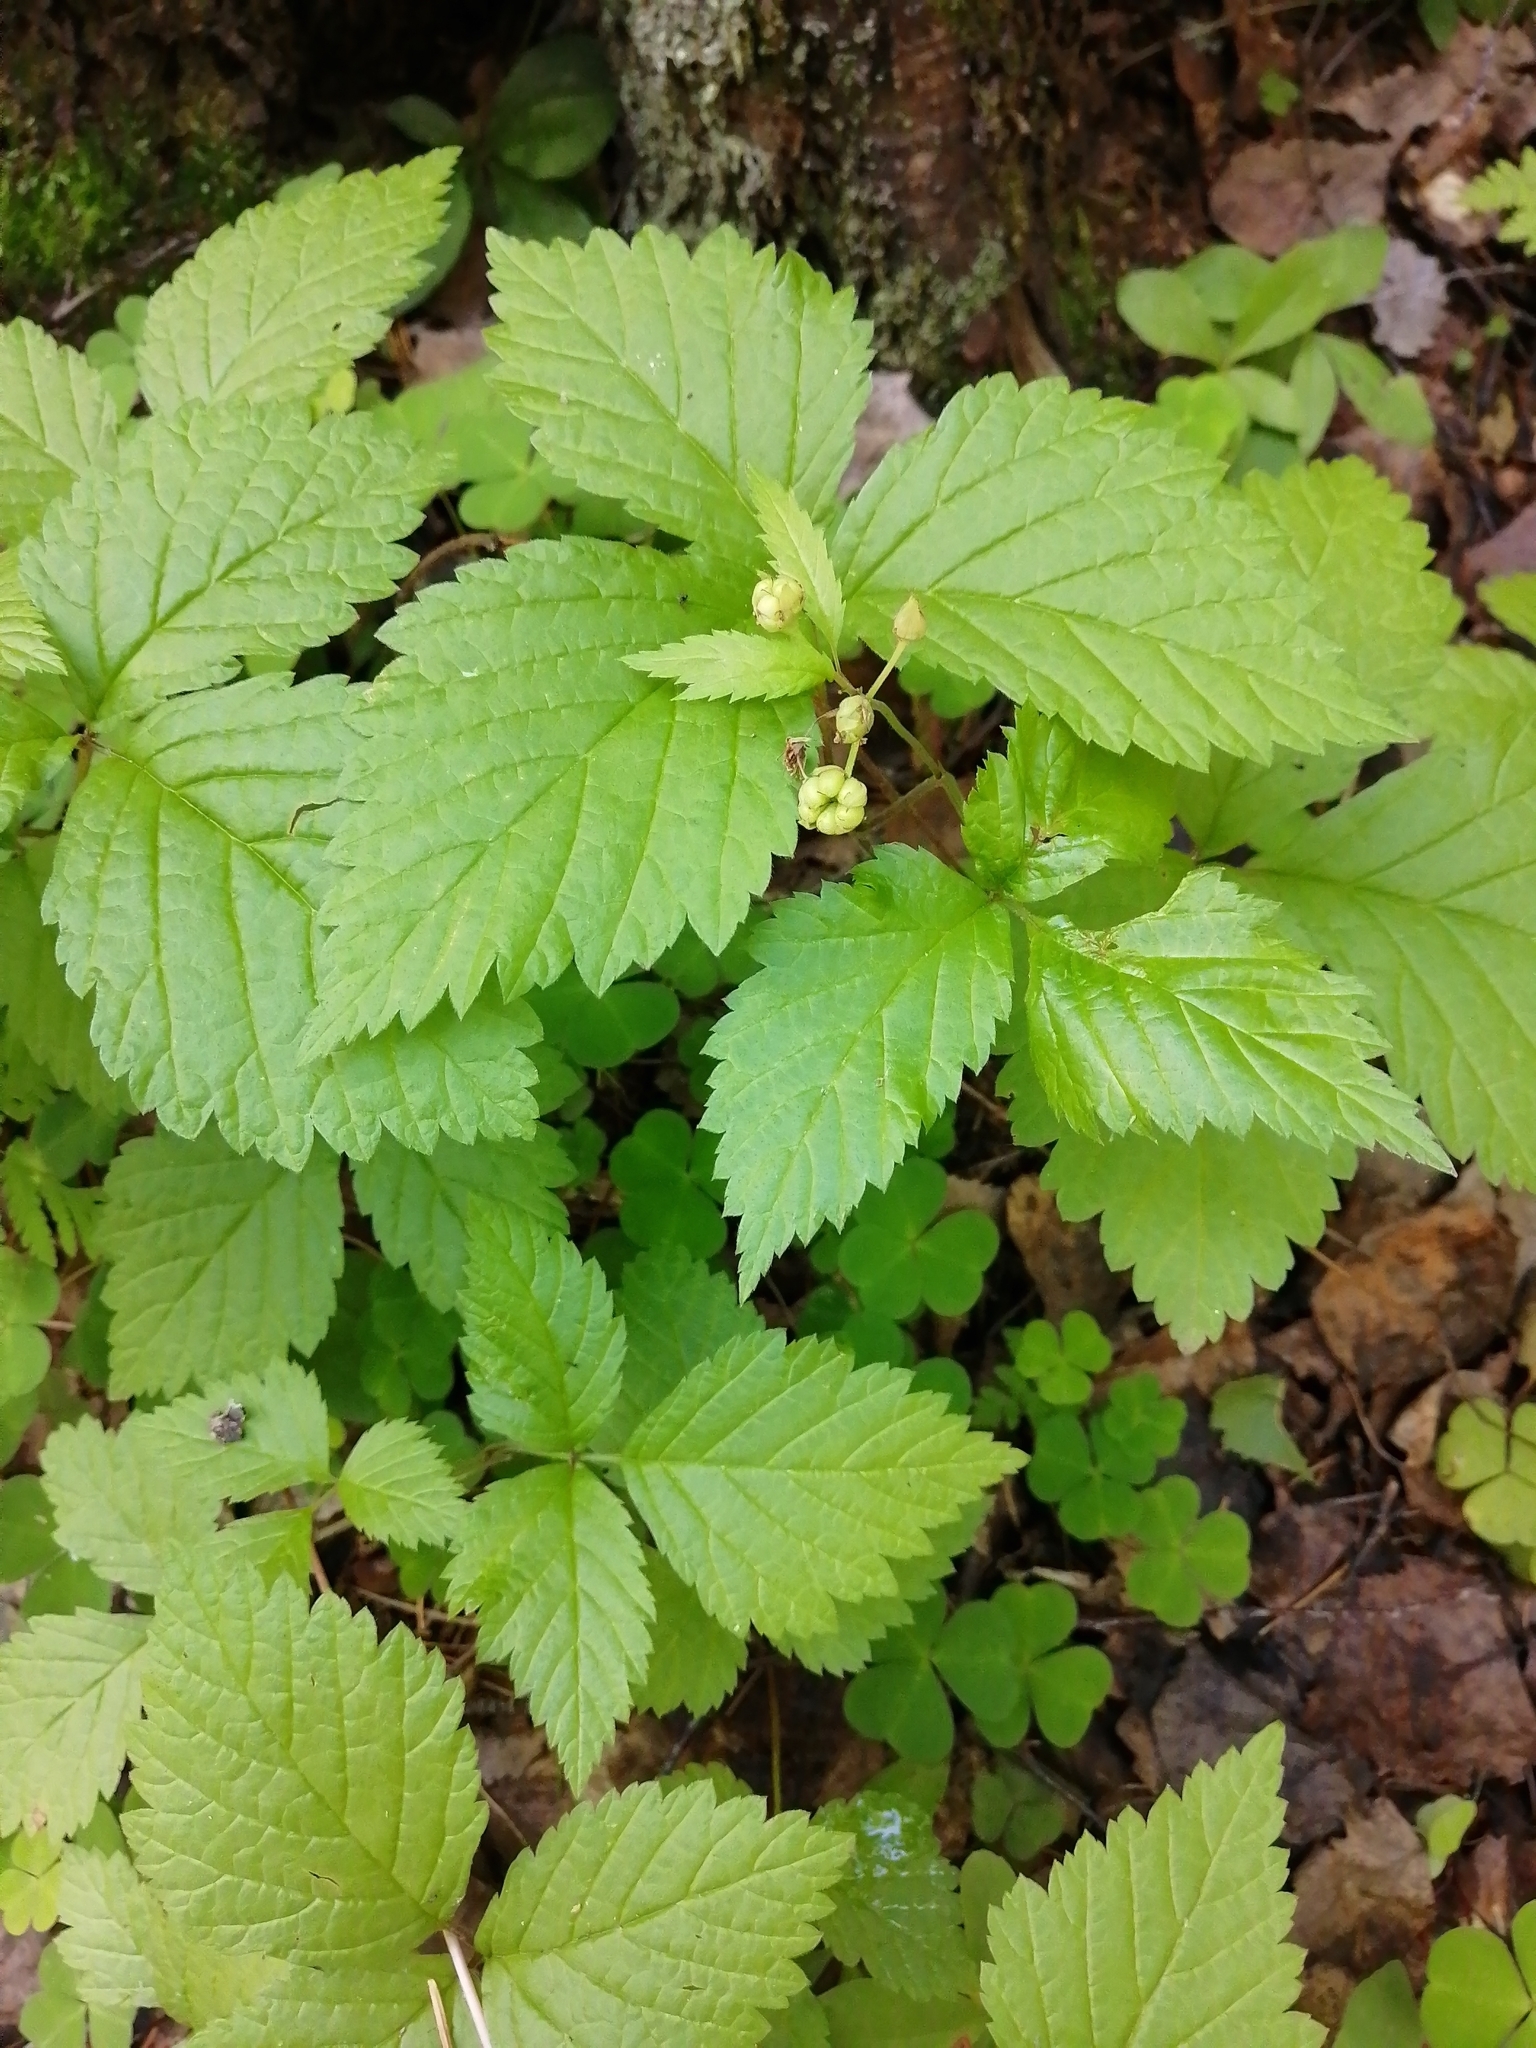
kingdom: Plantae
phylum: Tracheophyta
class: Magnoliopsida
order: Rosales
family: Rosaceae
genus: Rubus
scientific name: Rubus saxatilis
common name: Stone bramble
